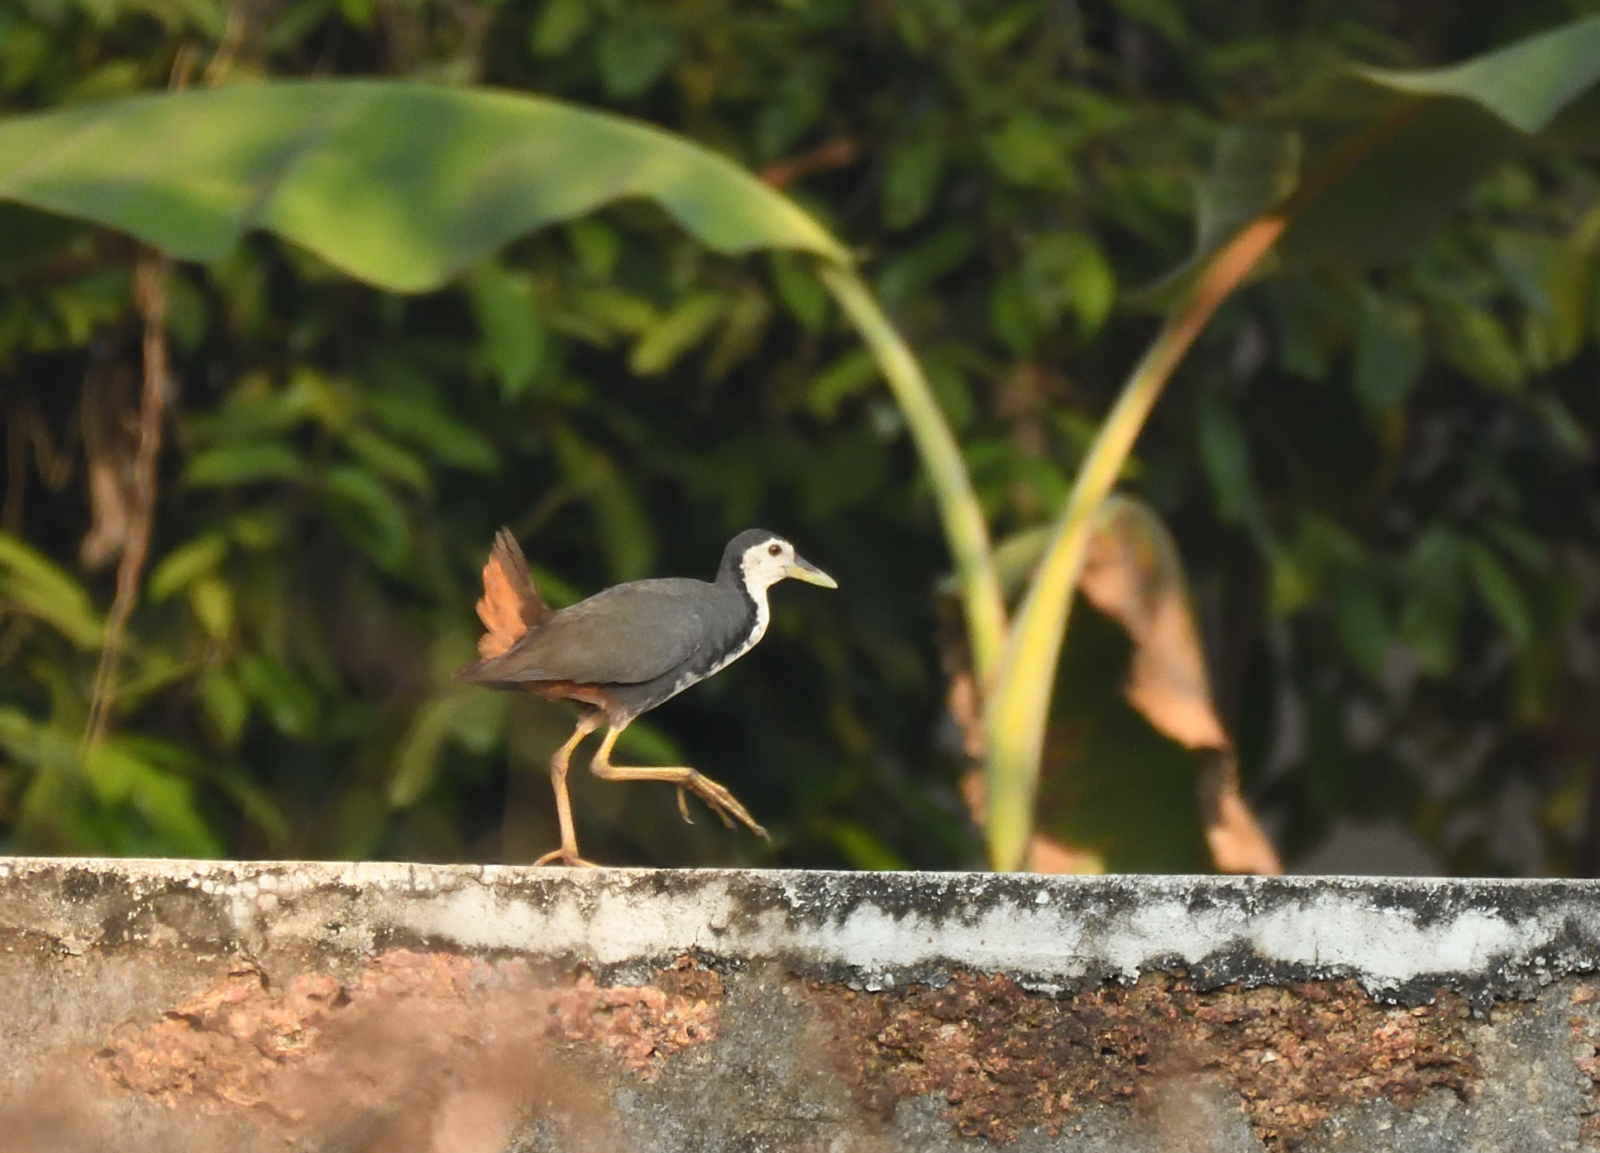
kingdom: Animalia
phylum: Chordata
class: Aves
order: Gruiformes
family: Rallidae
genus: Amaurornis
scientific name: Amaurornis phoenicurus
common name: White-breasted waterhen
